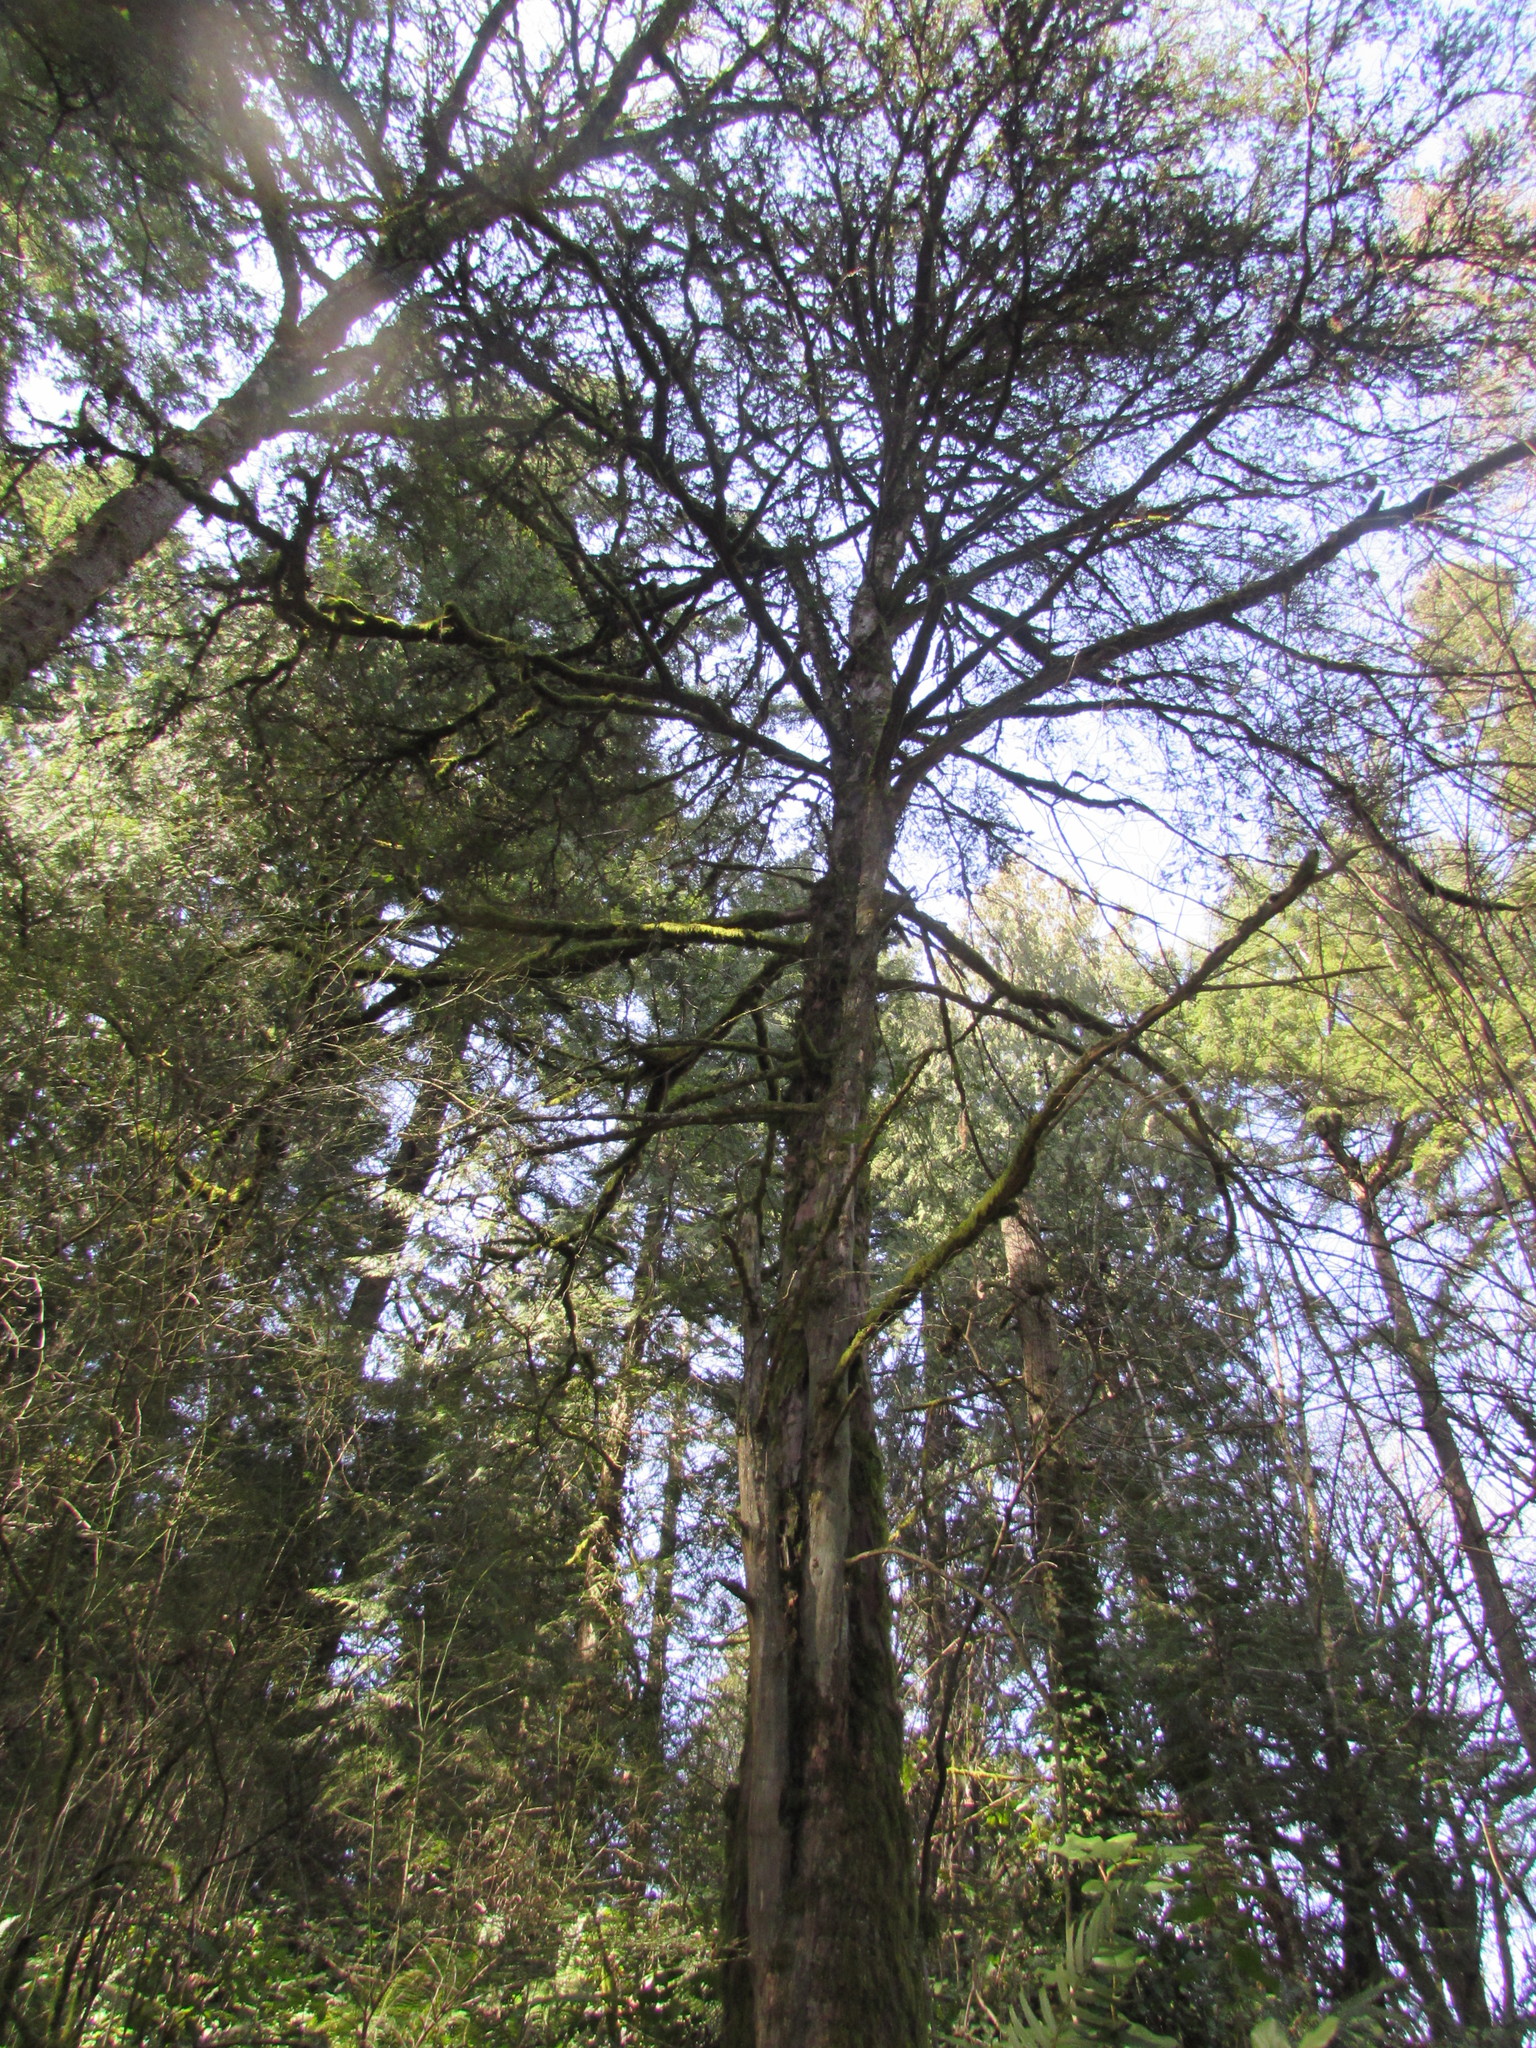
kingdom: Plantae
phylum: Tracheophyta
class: Pinopsida
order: Pinales
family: Taxaceae
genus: Taxus
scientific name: Taxus brevifolia
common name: Pacific yew
